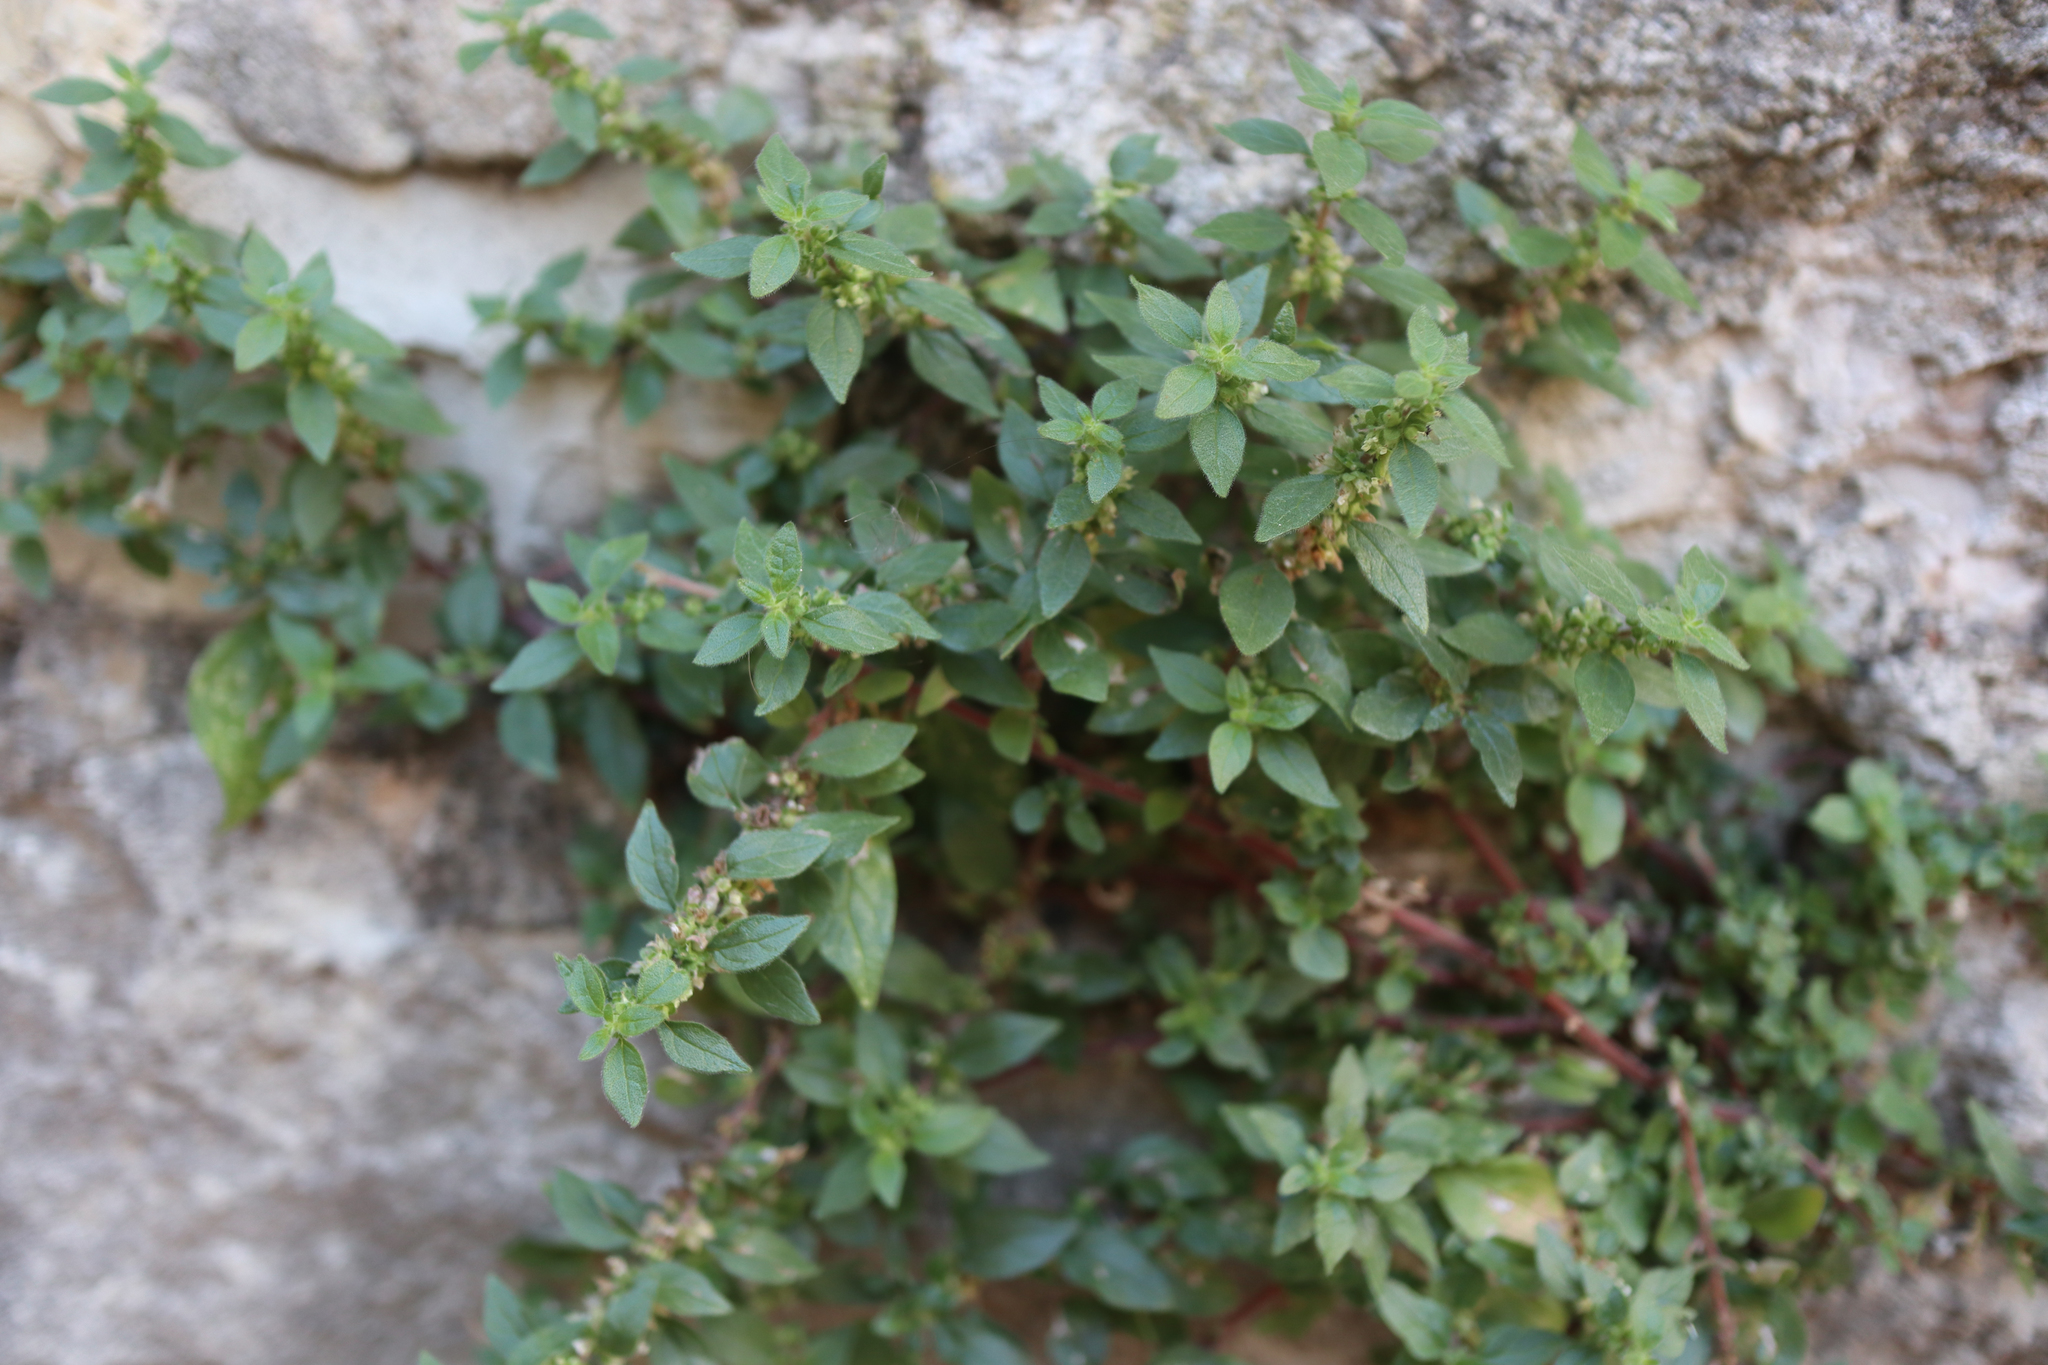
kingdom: Plantae
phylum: Tracheophyta
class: Magnoliopsida
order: Rosales
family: Urticaceae
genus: Parietaria
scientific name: Parietaria judaica
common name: Pellitory-of-the-wall
